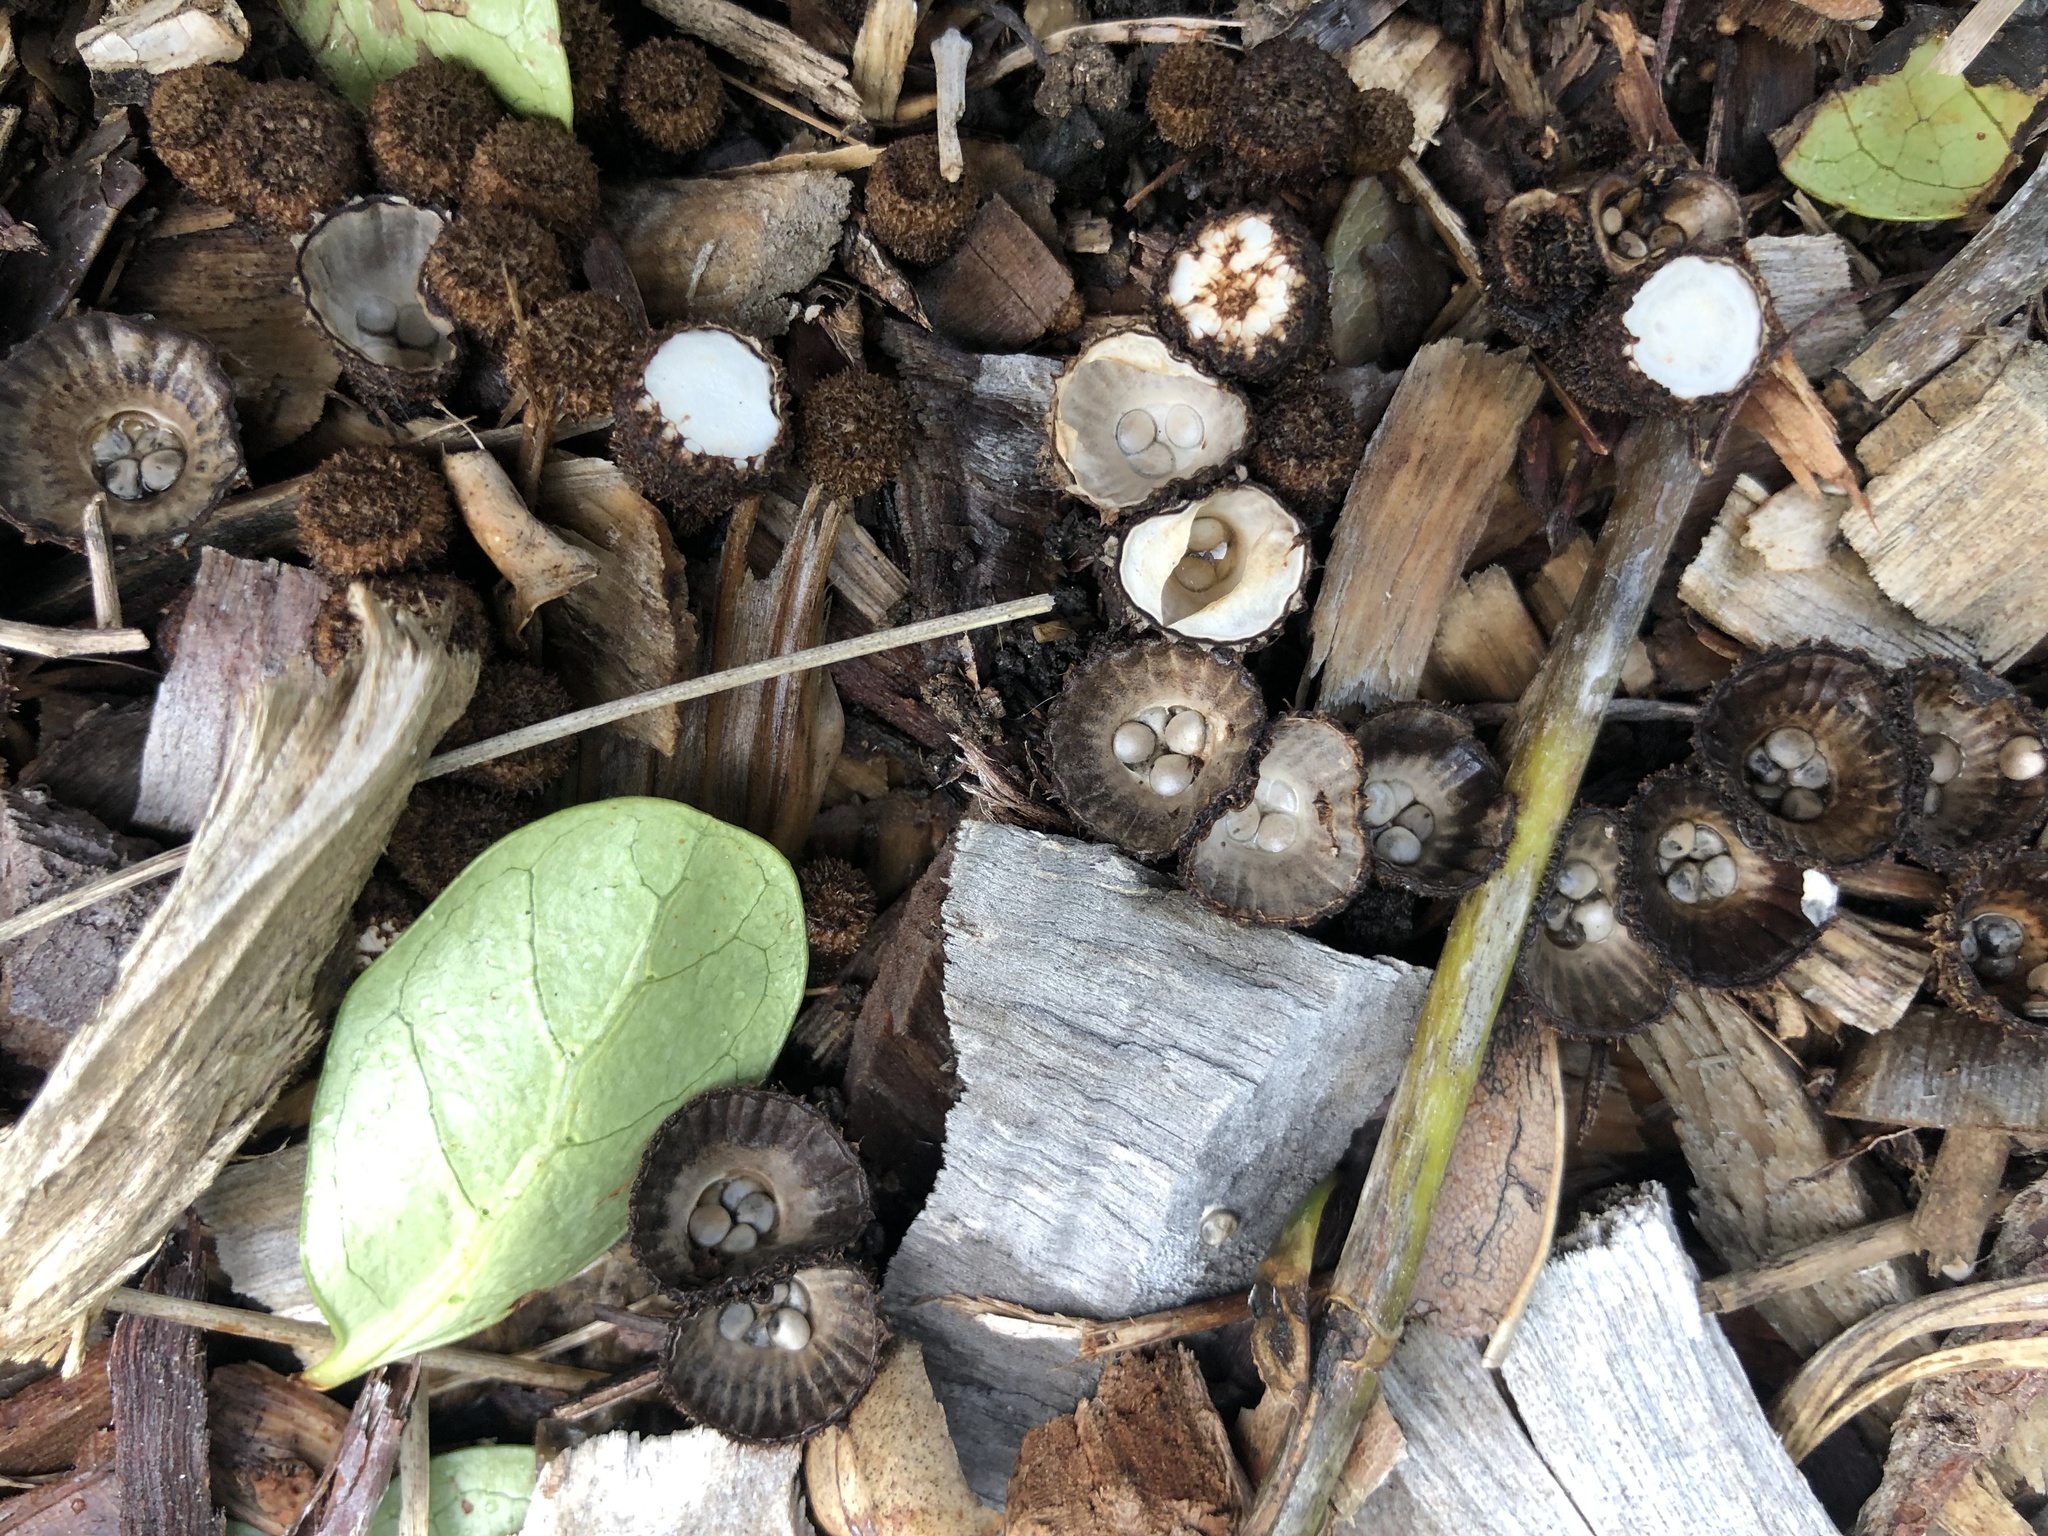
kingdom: Fungi
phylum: Basidiomycota
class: Agaricomycetes
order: Agaricales
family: Agaricaceae
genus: Cyathus
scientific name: Cyathus striatus
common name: Fluted bird's nest
